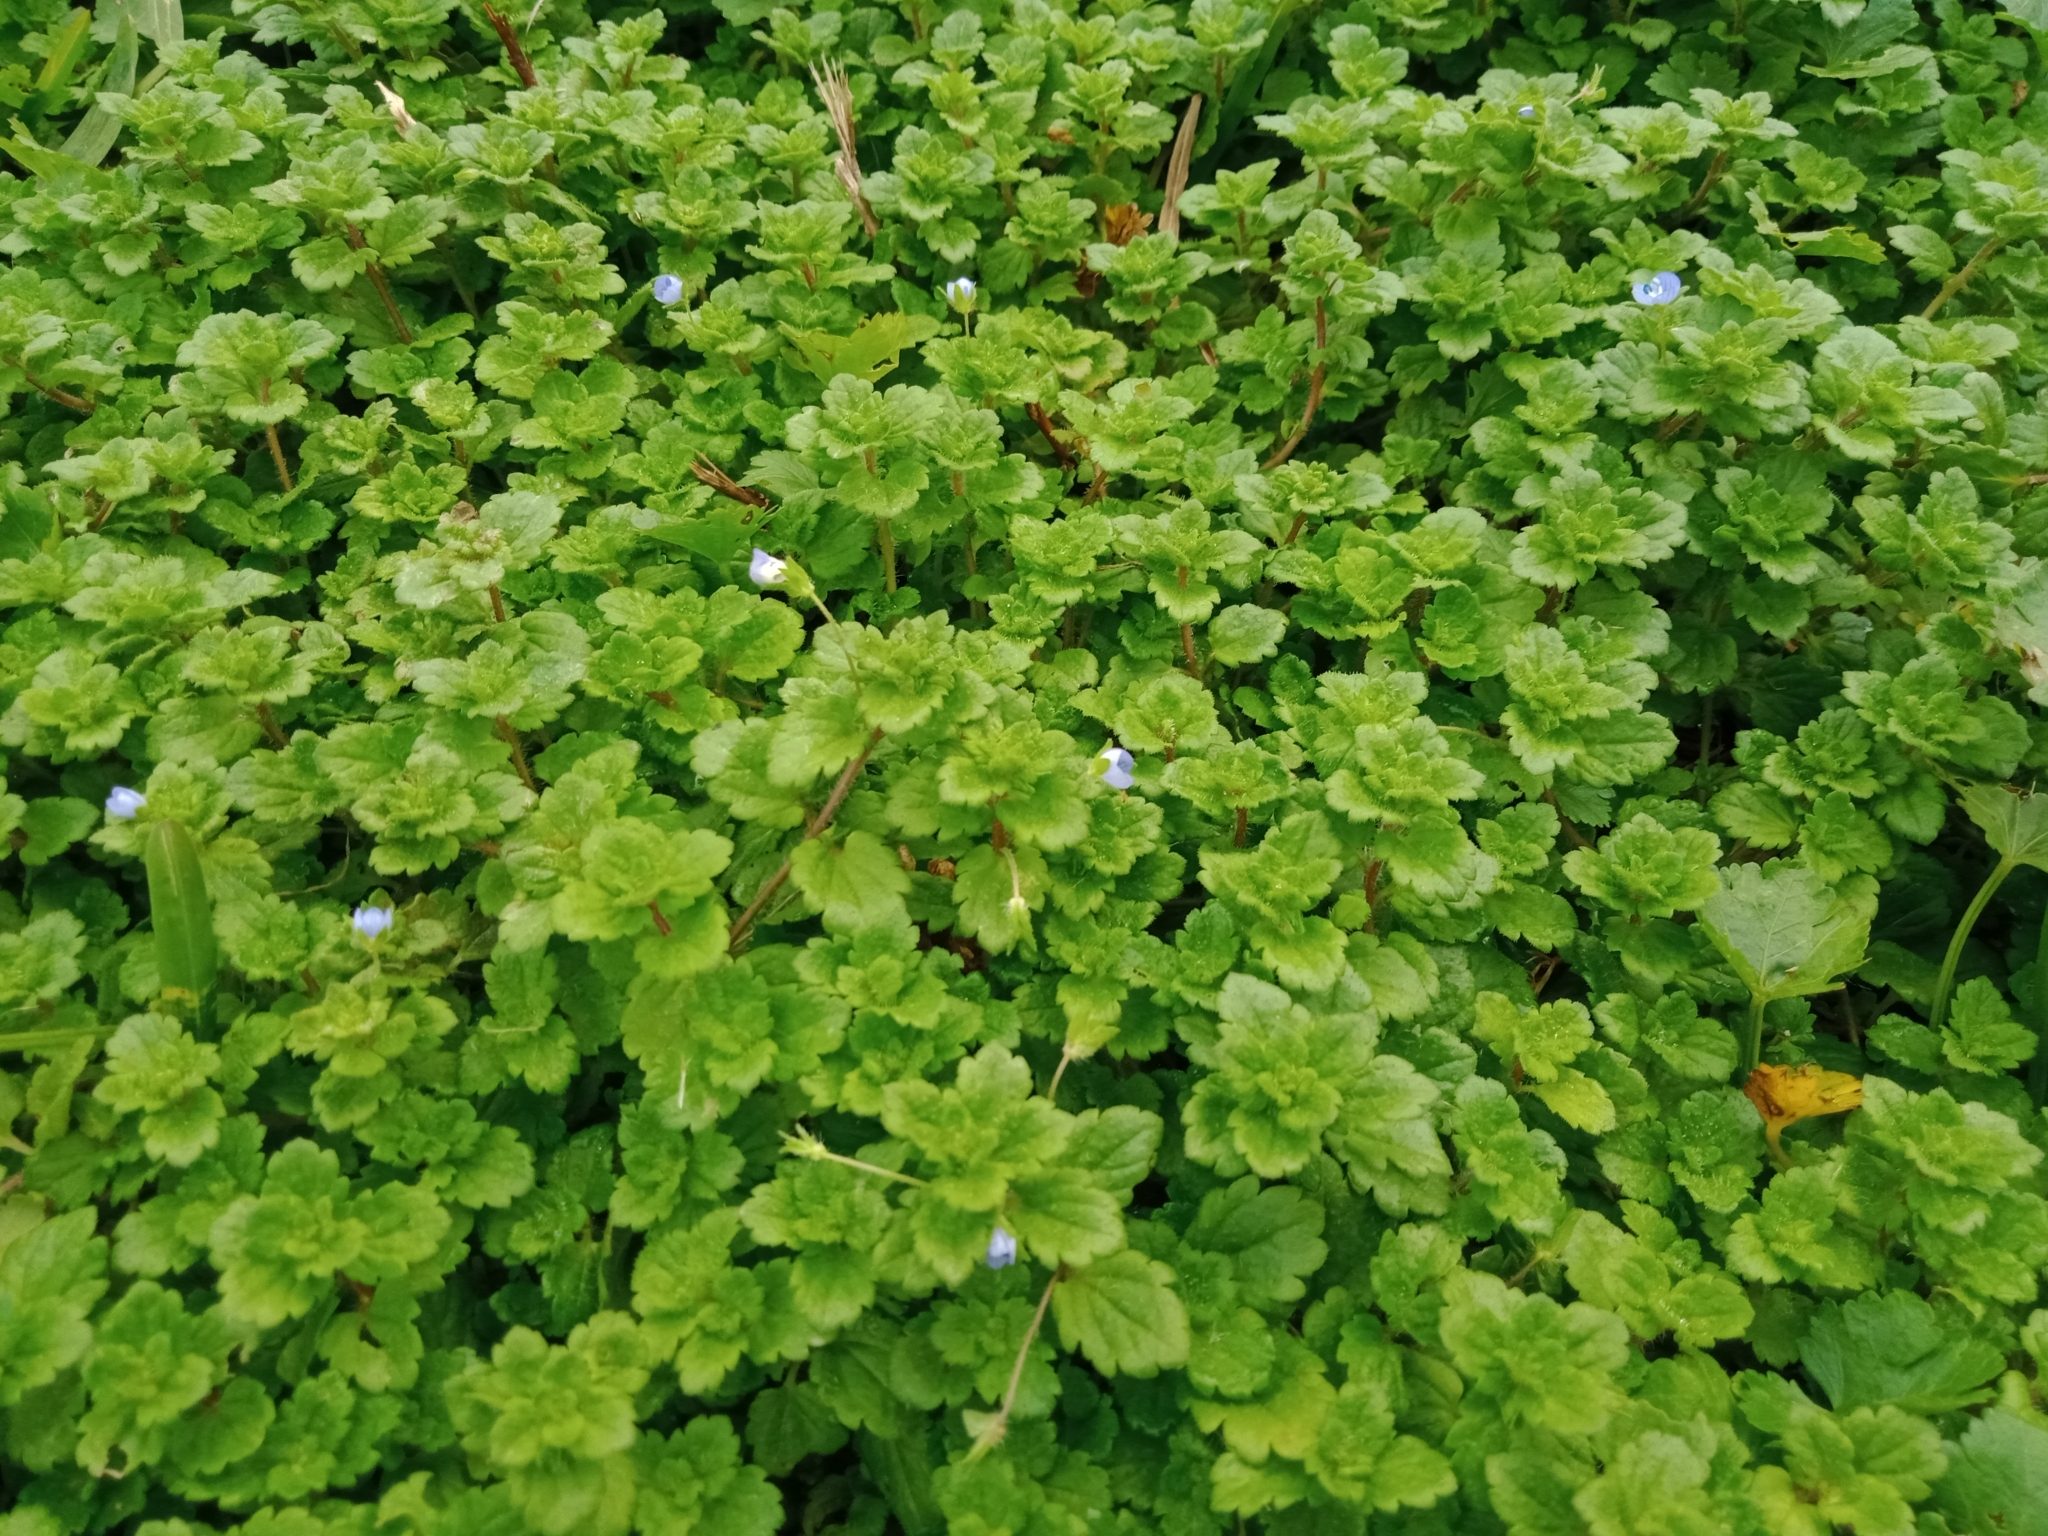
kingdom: Plantae
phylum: Tracheophyta
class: Magnoliopsida
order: Lamiales
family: Plantaginaceae
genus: Veronica
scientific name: Veronica persica
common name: Common field-speedwell
